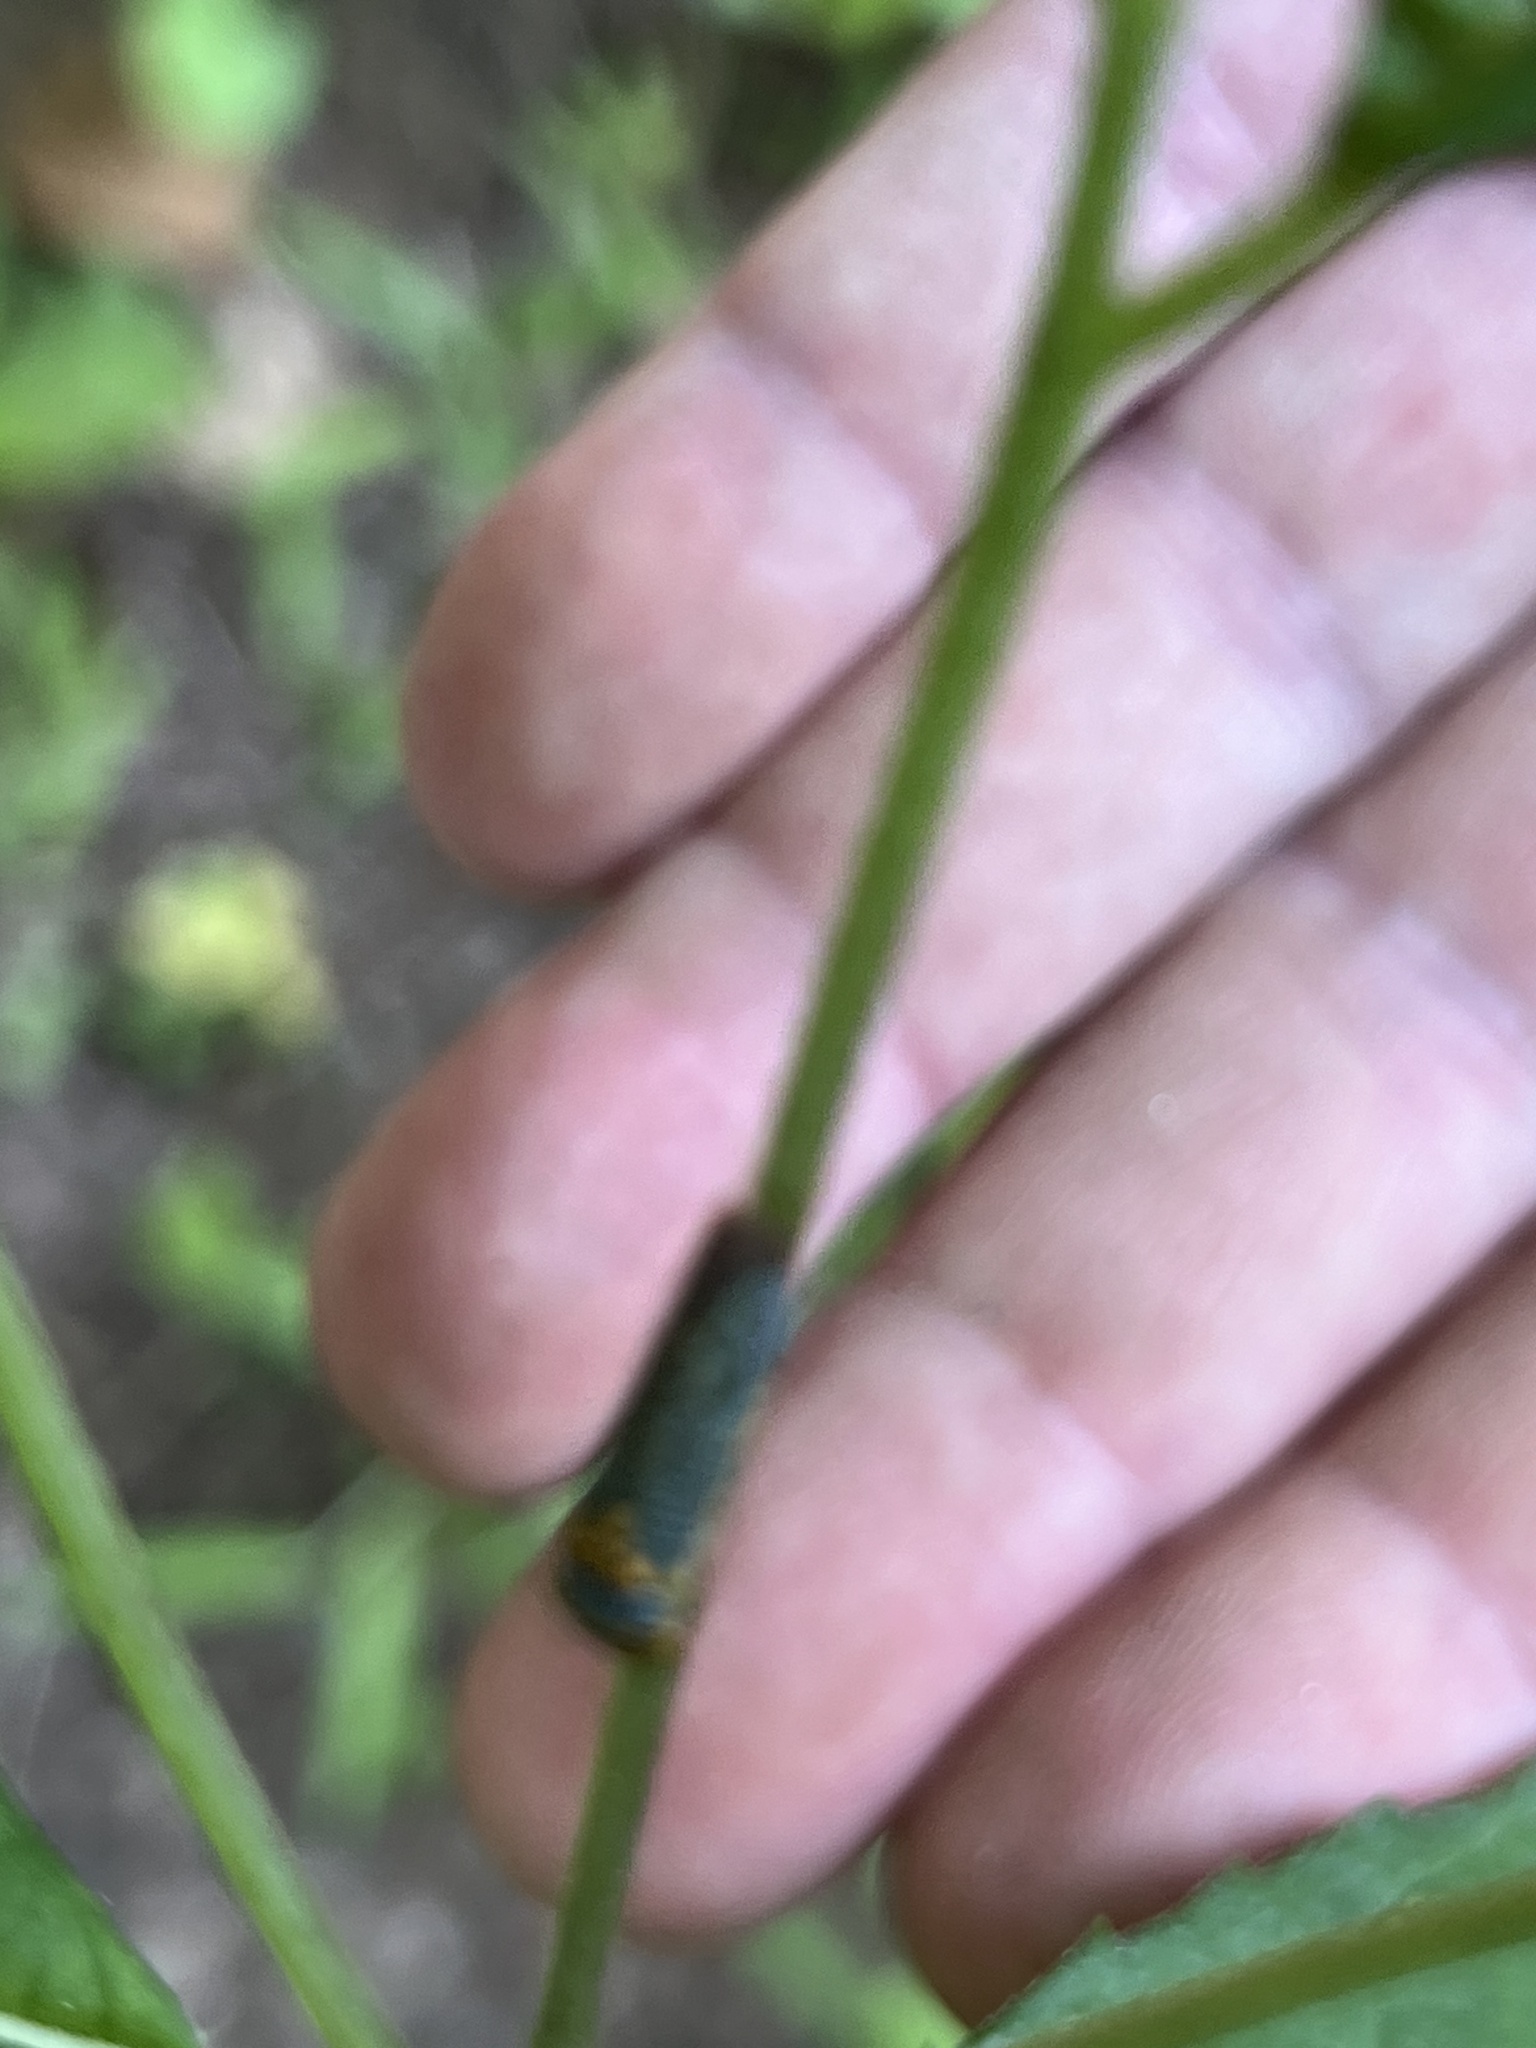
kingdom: Animalia
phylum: Arthropoda
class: Insecta
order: Hemiptera
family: Cicadellidae
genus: Oncometopia
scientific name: Oncometopia orbona
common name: Broad-headed sharpshooter
